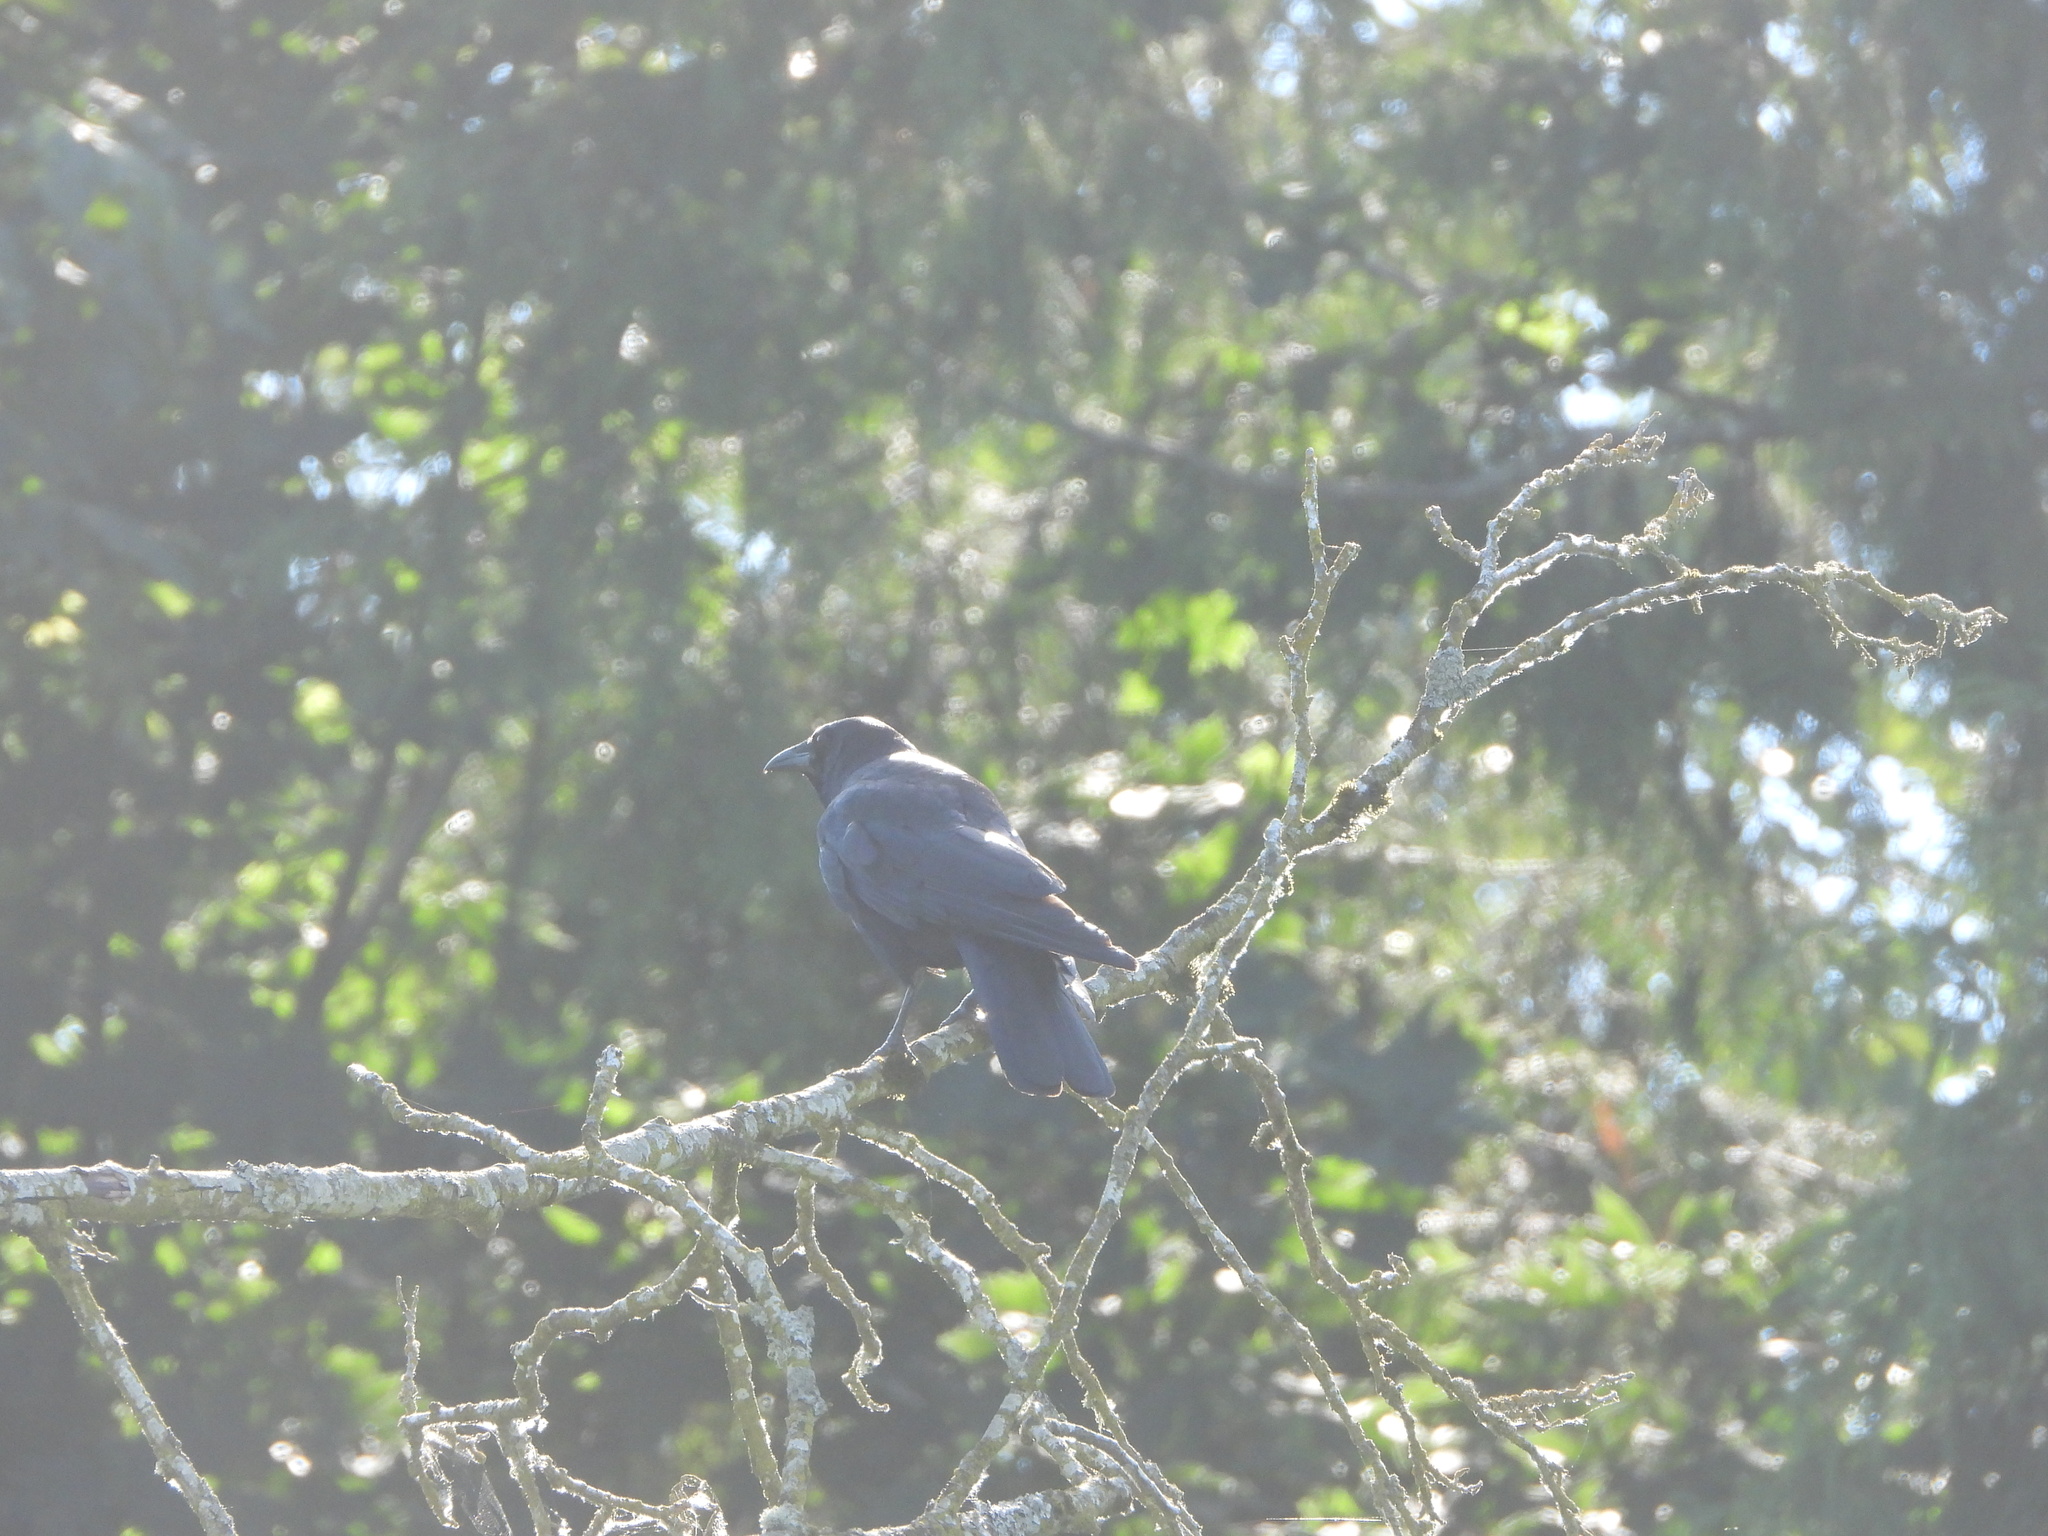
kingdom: Animalia
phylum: Chordata
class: Aves
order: Passeriformes
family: Corvidae
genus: Corvus
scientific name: Corvus brachyrhynchos
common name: American crow
